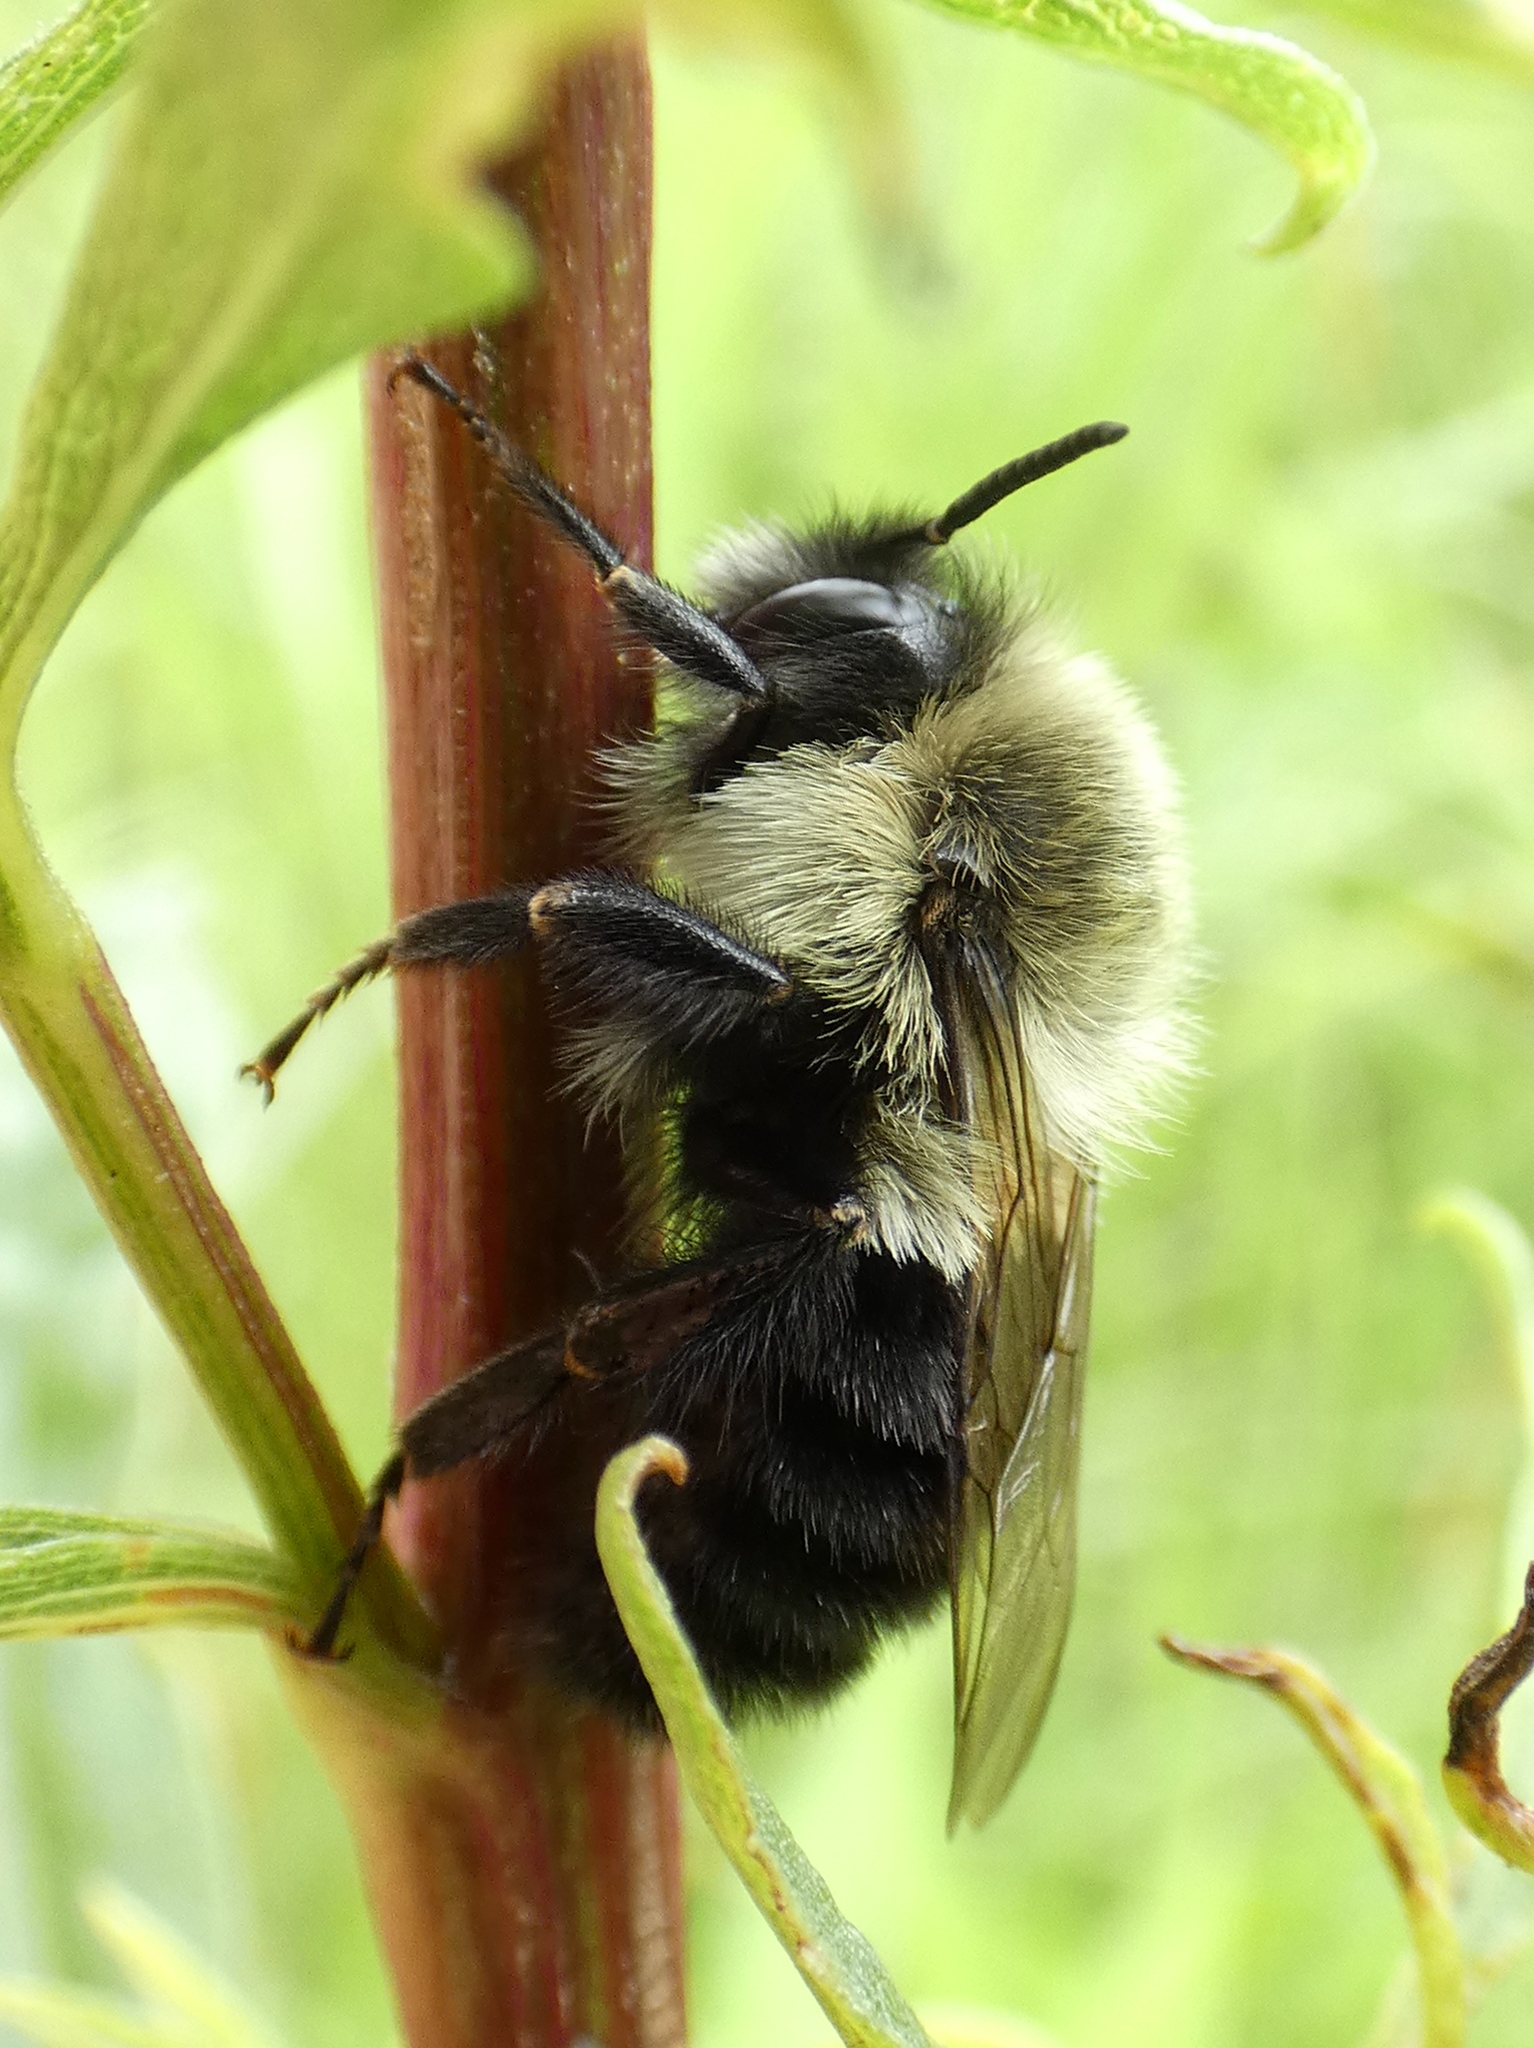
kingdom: Animalia
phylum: Arthropoda
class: Insecta
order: Hymenoptera
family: Apidae
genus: Bombus
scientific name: Bombus impatiens
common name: Common eastern bumble bee
